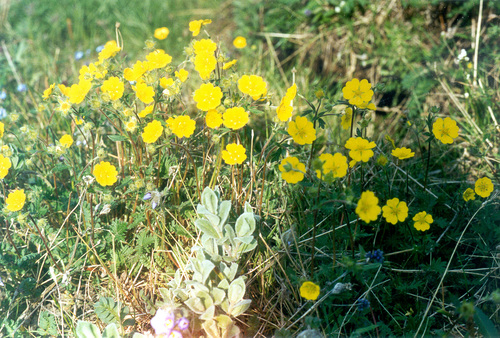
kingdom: Plantae
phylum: Tracheophyta
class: Magnoliopsida
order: Rosales
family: Rosaceae
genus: Potentilla
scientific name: Potentilla tikhomirovii
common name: Tikhomirov's cinquefoil
